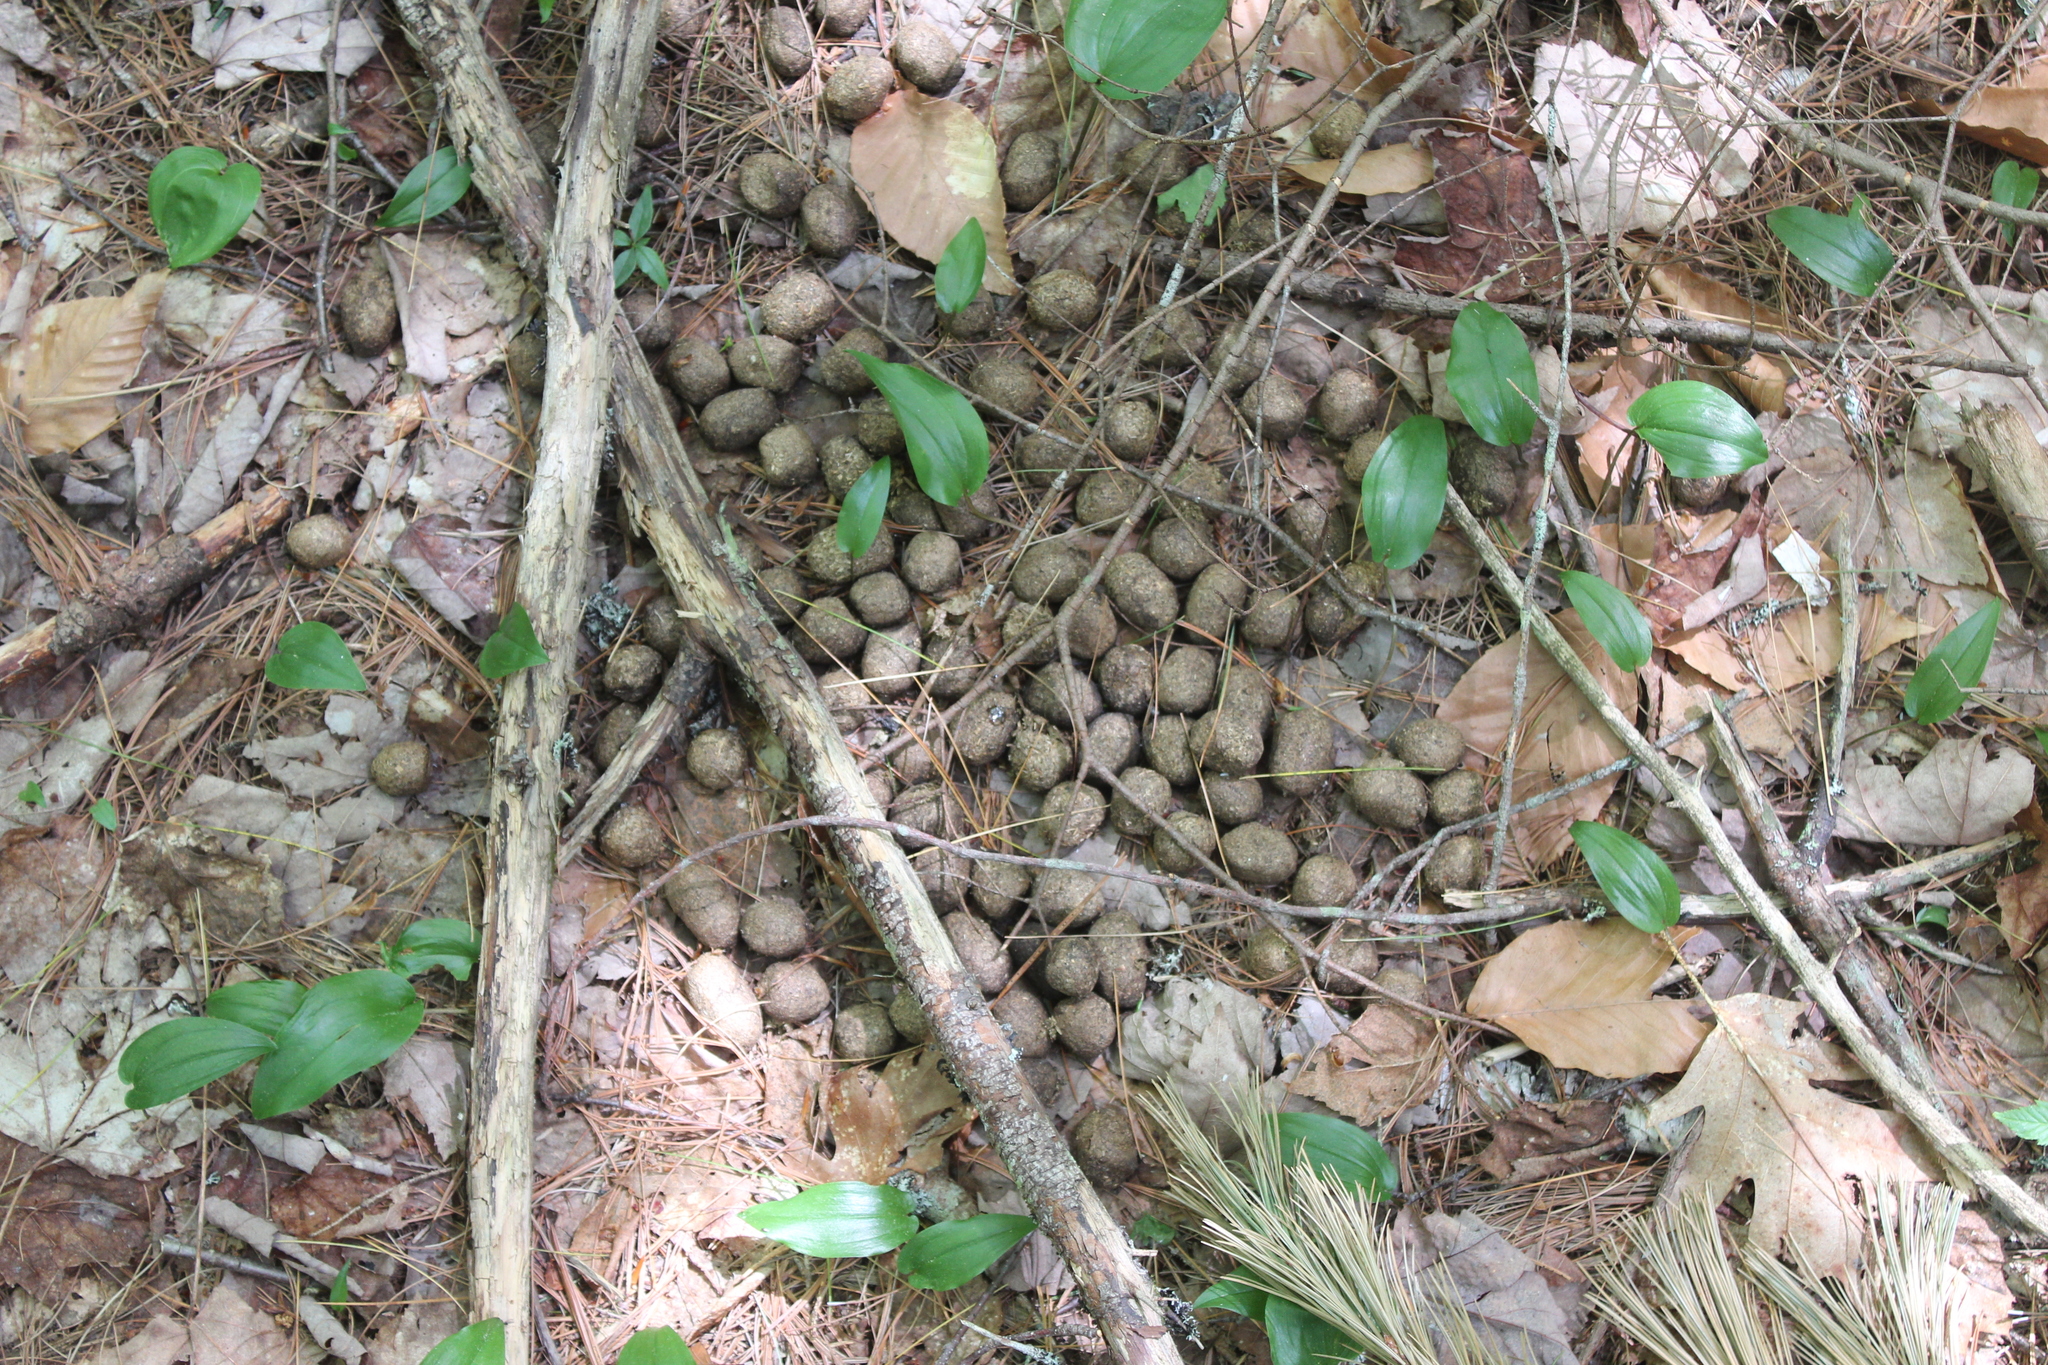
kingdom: Animalia
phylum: Chordata
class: Mammalia
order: Artiodactyla
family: Cervidae
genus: Alces
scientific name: Alces alces
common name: Moose
